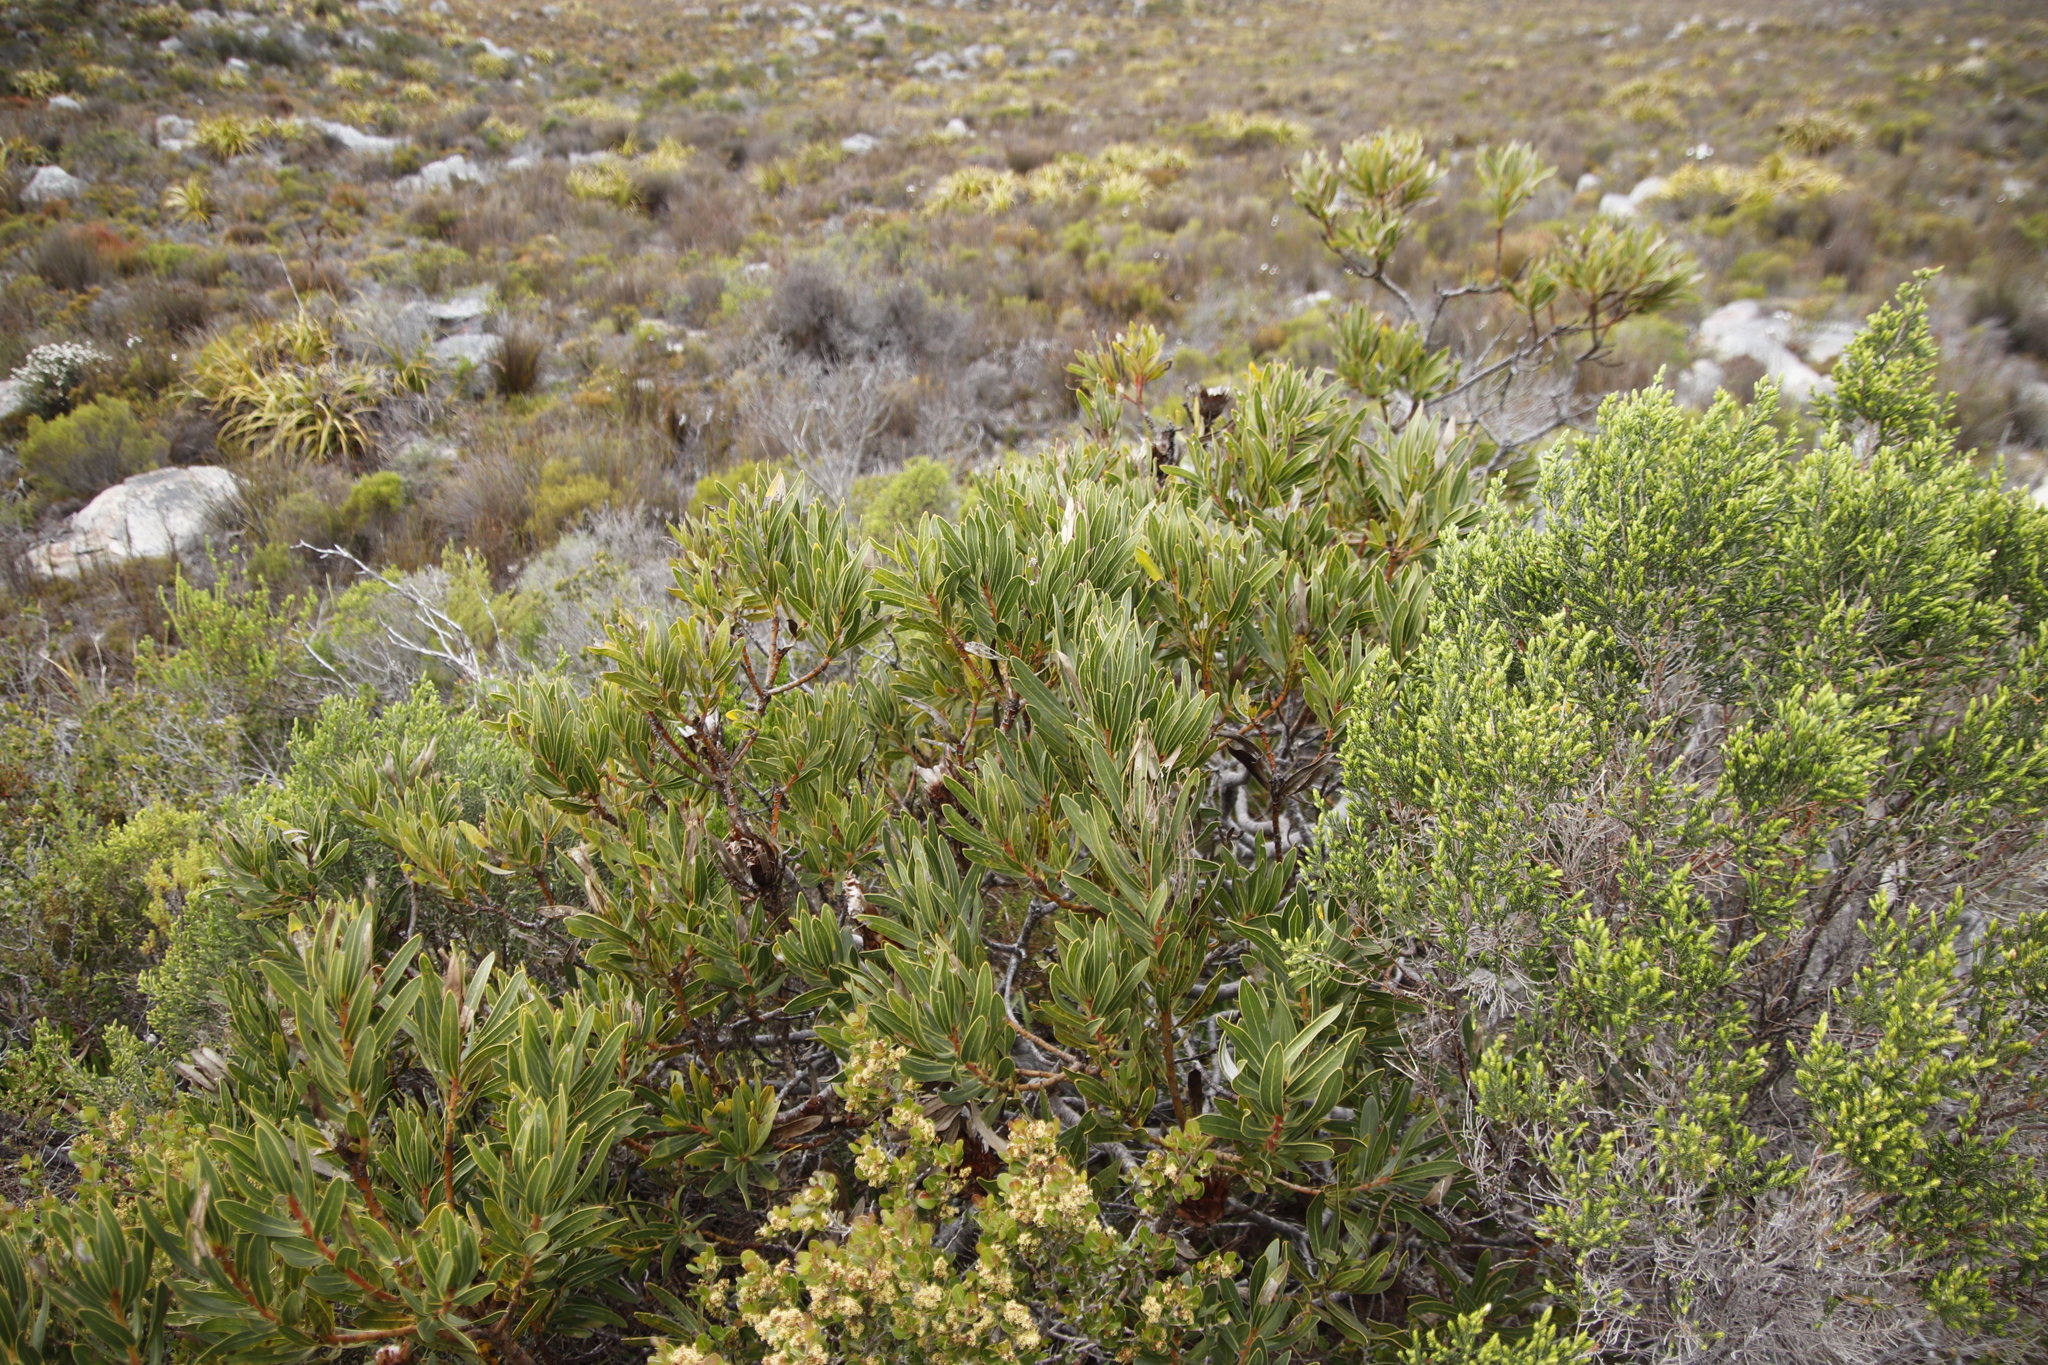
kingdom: Plantae
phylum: Tracheophyta
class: Magnoliopsida
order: Proteales
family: Proteaceae
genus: Protea
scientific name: Protea lepidocarpodendron
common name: Black-bearded protea
